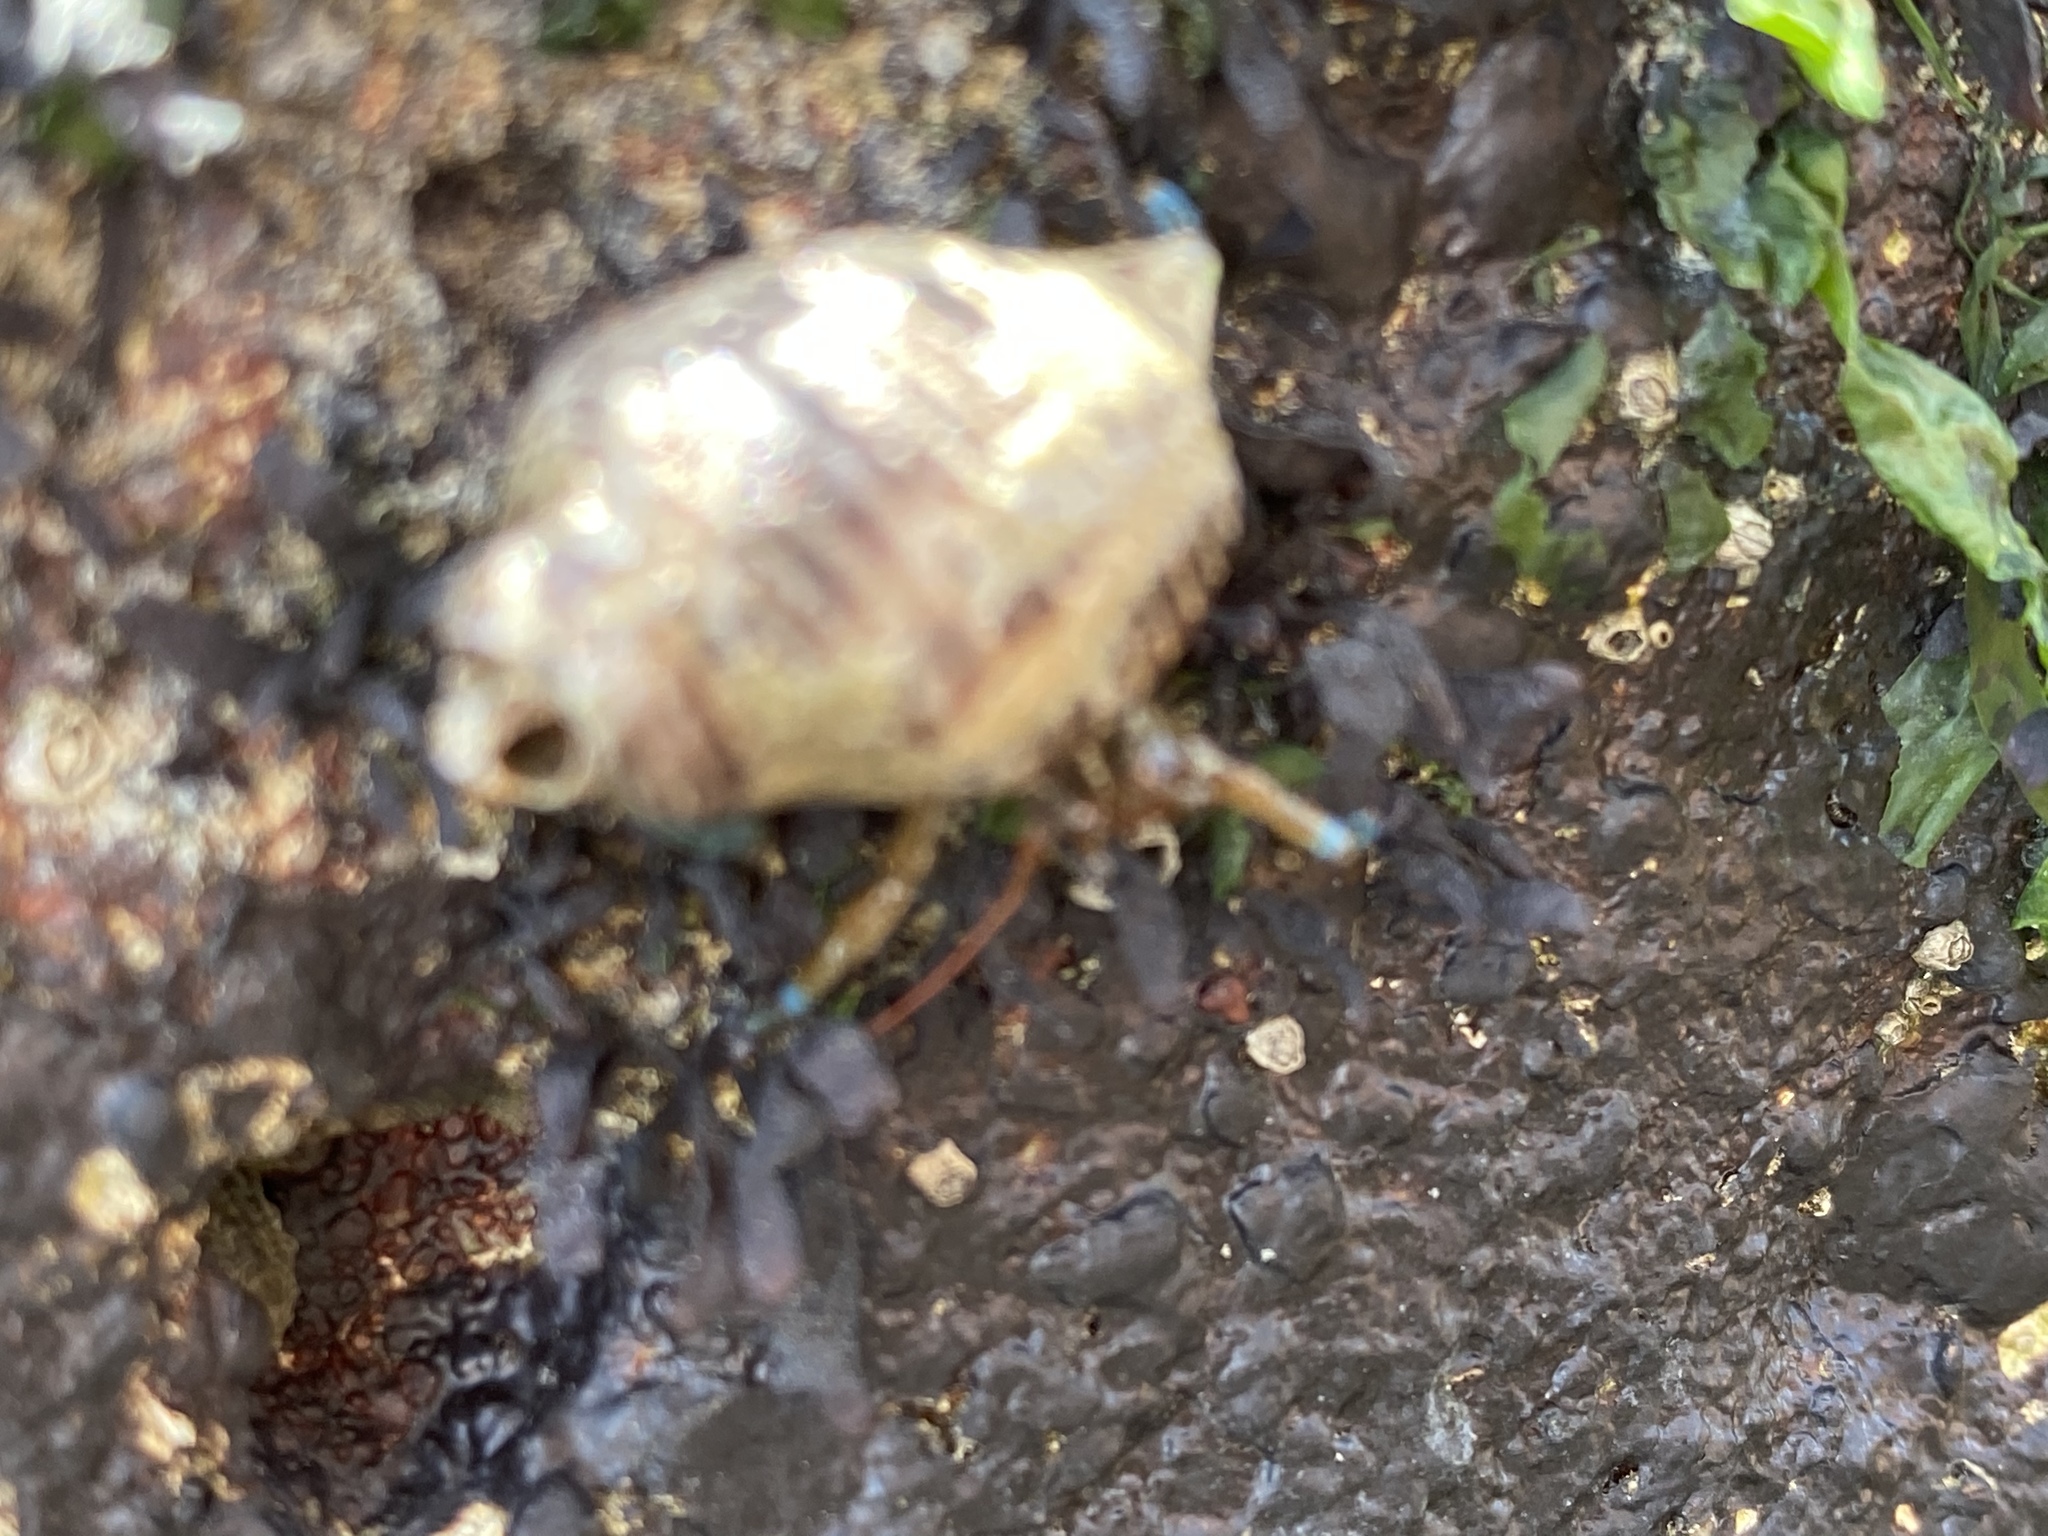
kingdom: Animalia
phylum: Arthropoda
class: Malacostraca
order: Decapoda
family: Paguridae
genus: Pagurus
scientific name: Pagurus samuelis
